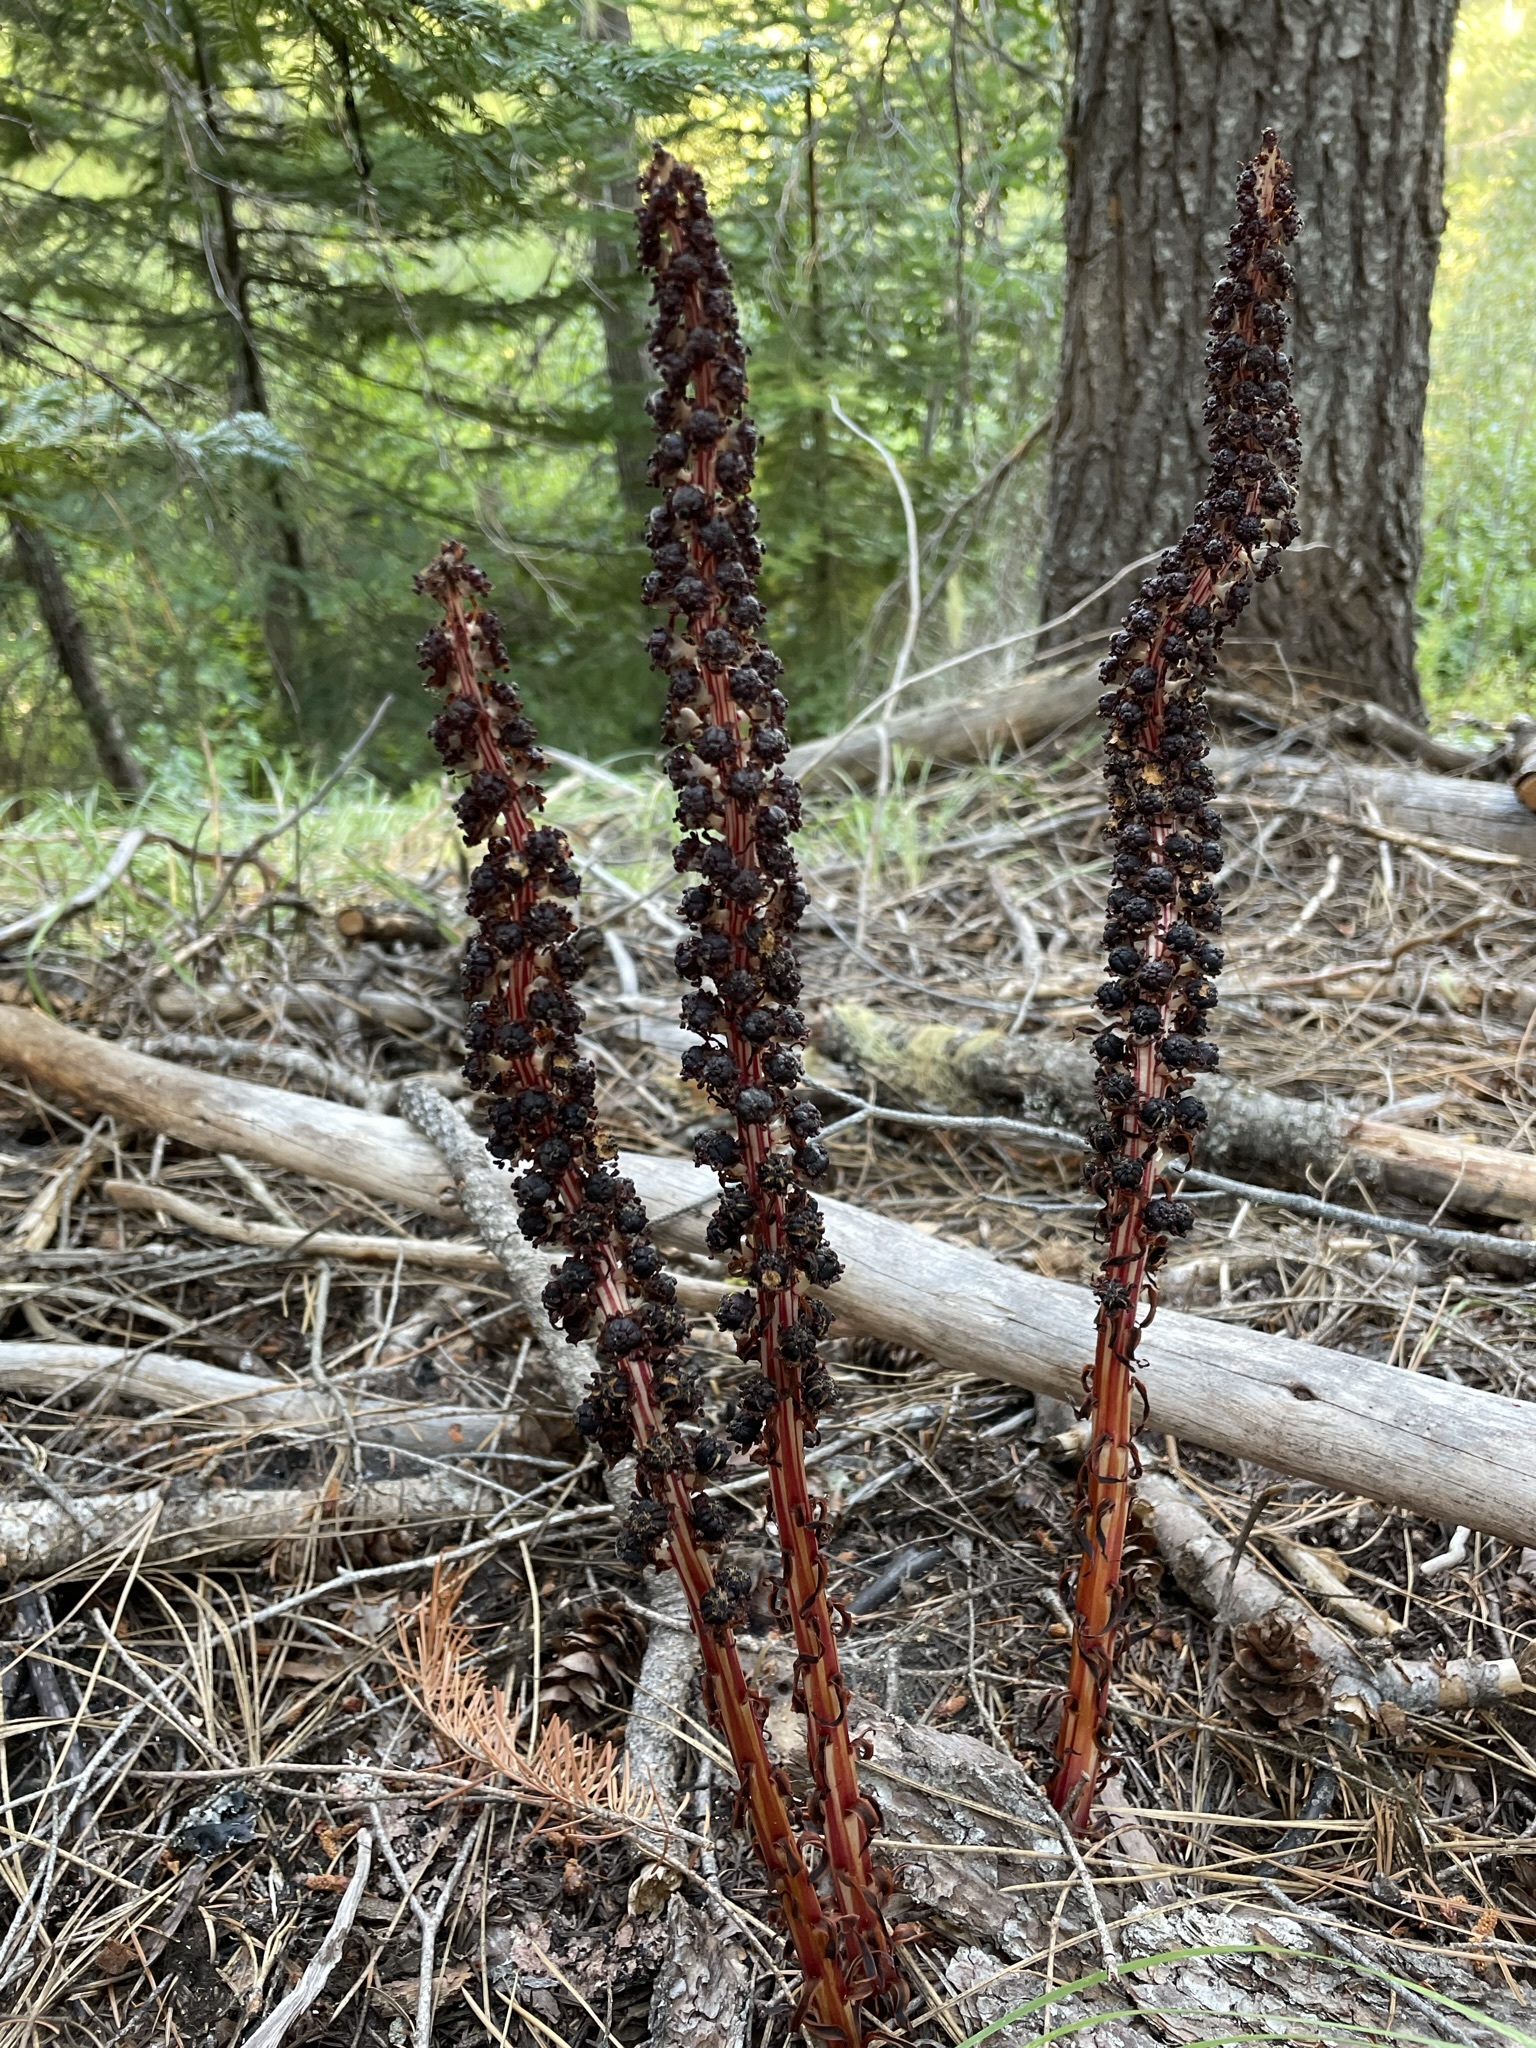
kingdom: Plantae
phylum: Tracheophyta
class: Magnoliopsida
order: Ericales
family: Ericaceae
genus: Allotropa
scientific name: Allotropa virgata
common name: Candy-striped allotropa
